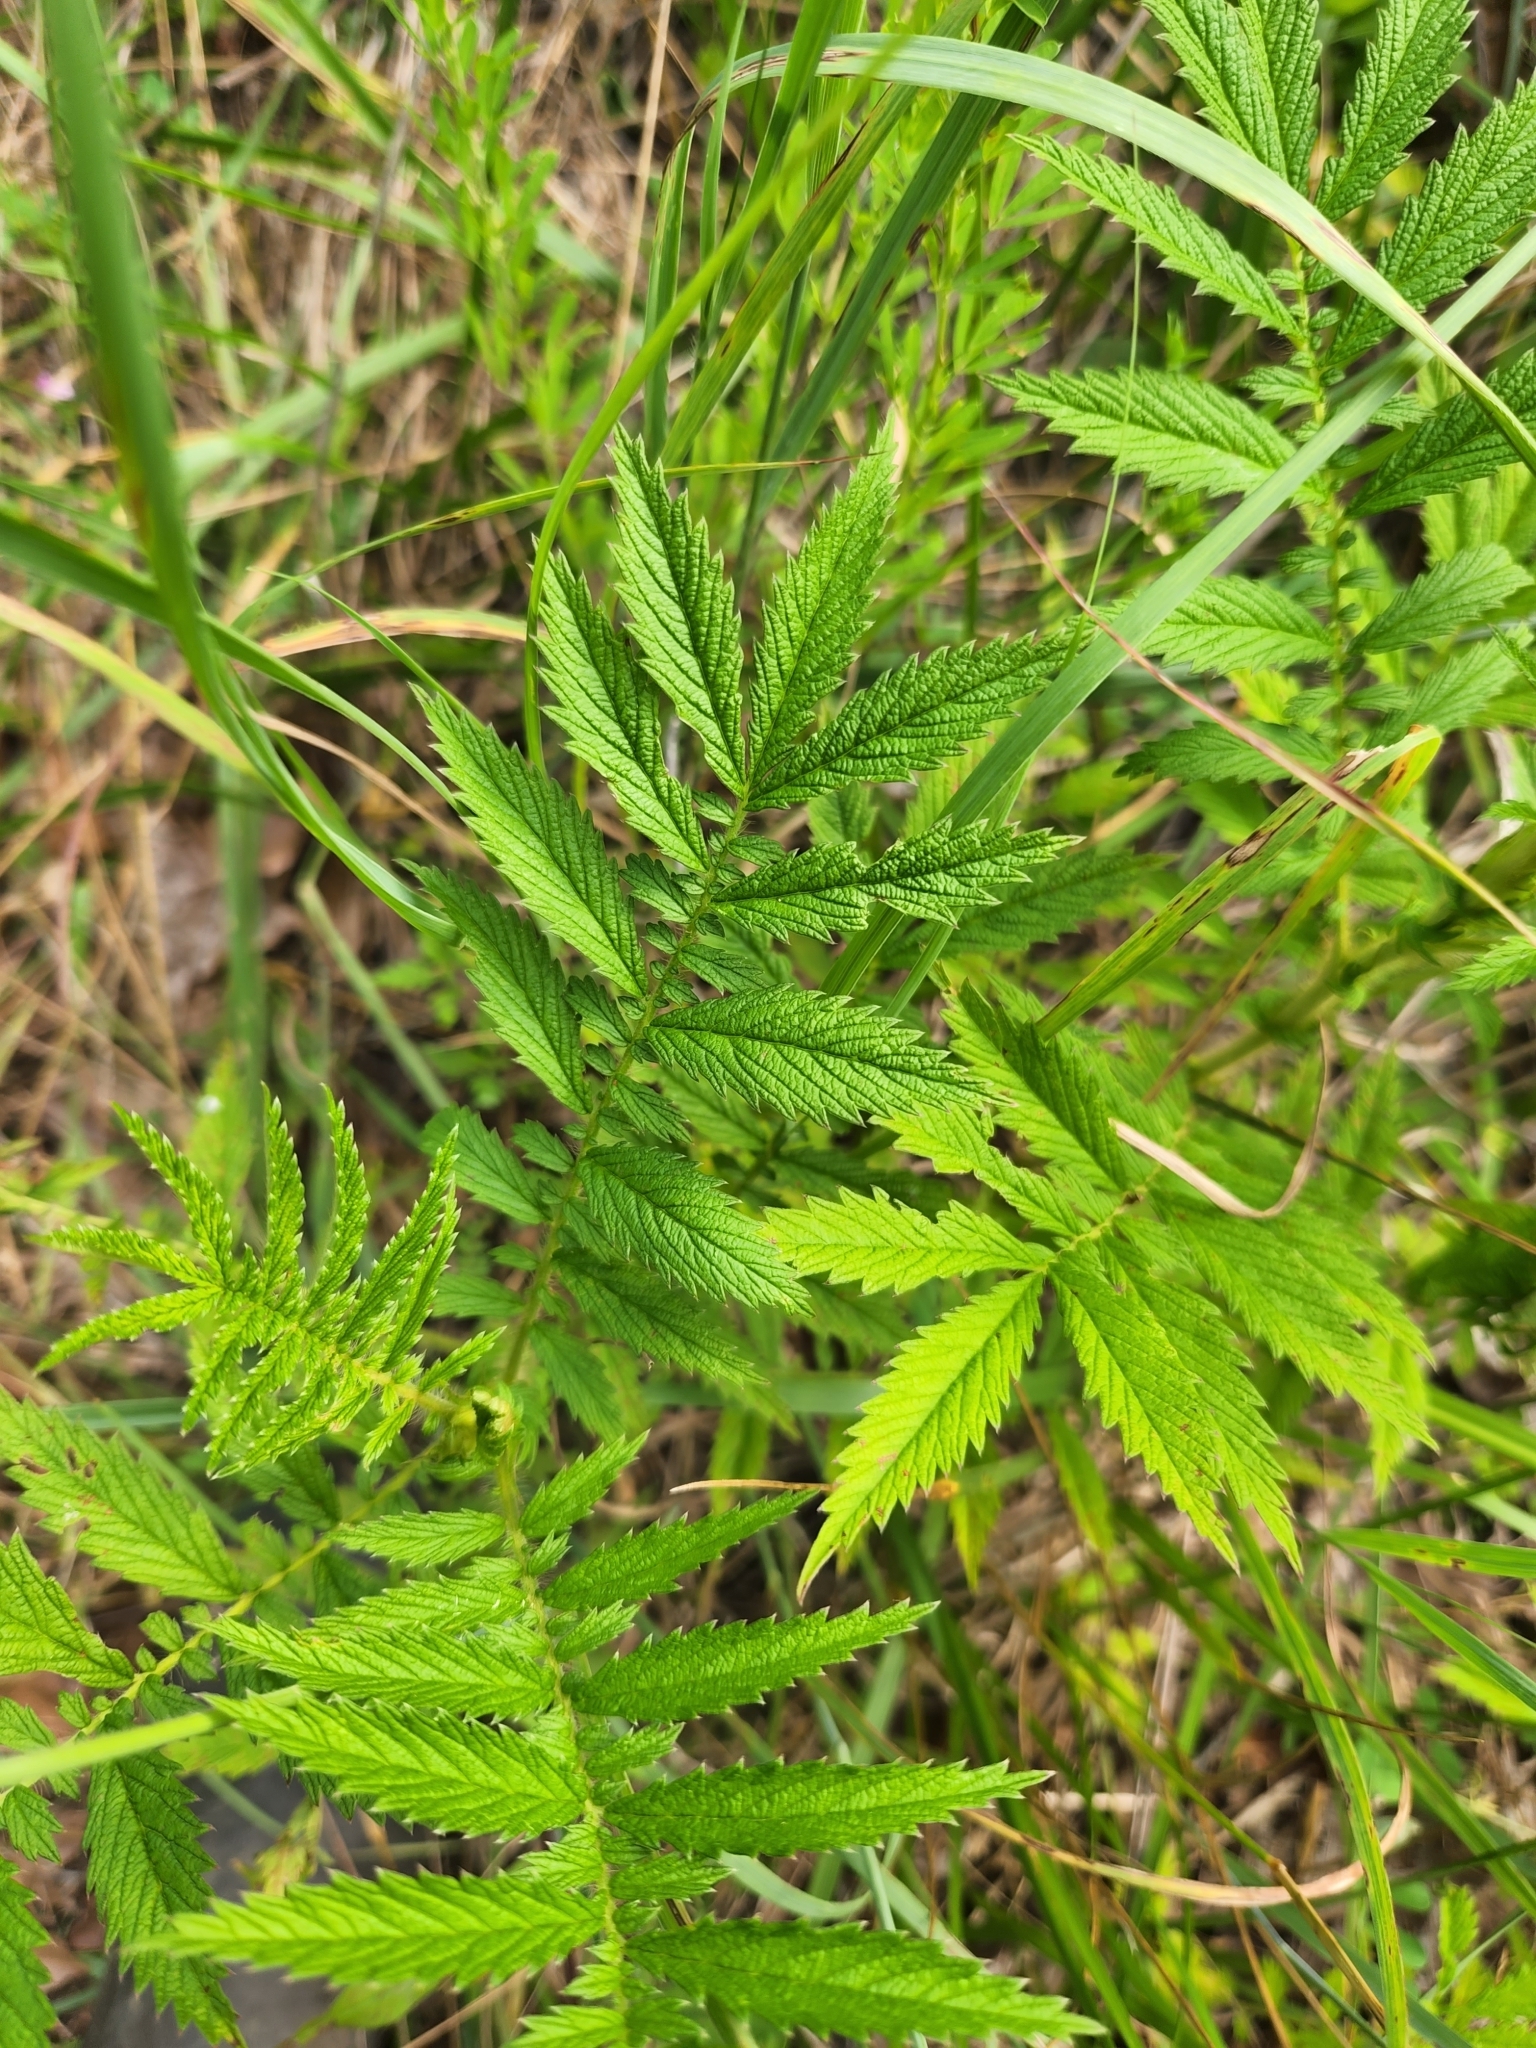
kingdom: Plantae
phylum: Tracheophyta
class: Magnoliopsida
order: Rosales
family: Rosaceae
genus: Agrimonia
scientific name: Agrimonia parviflora
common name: Harvest-lice
